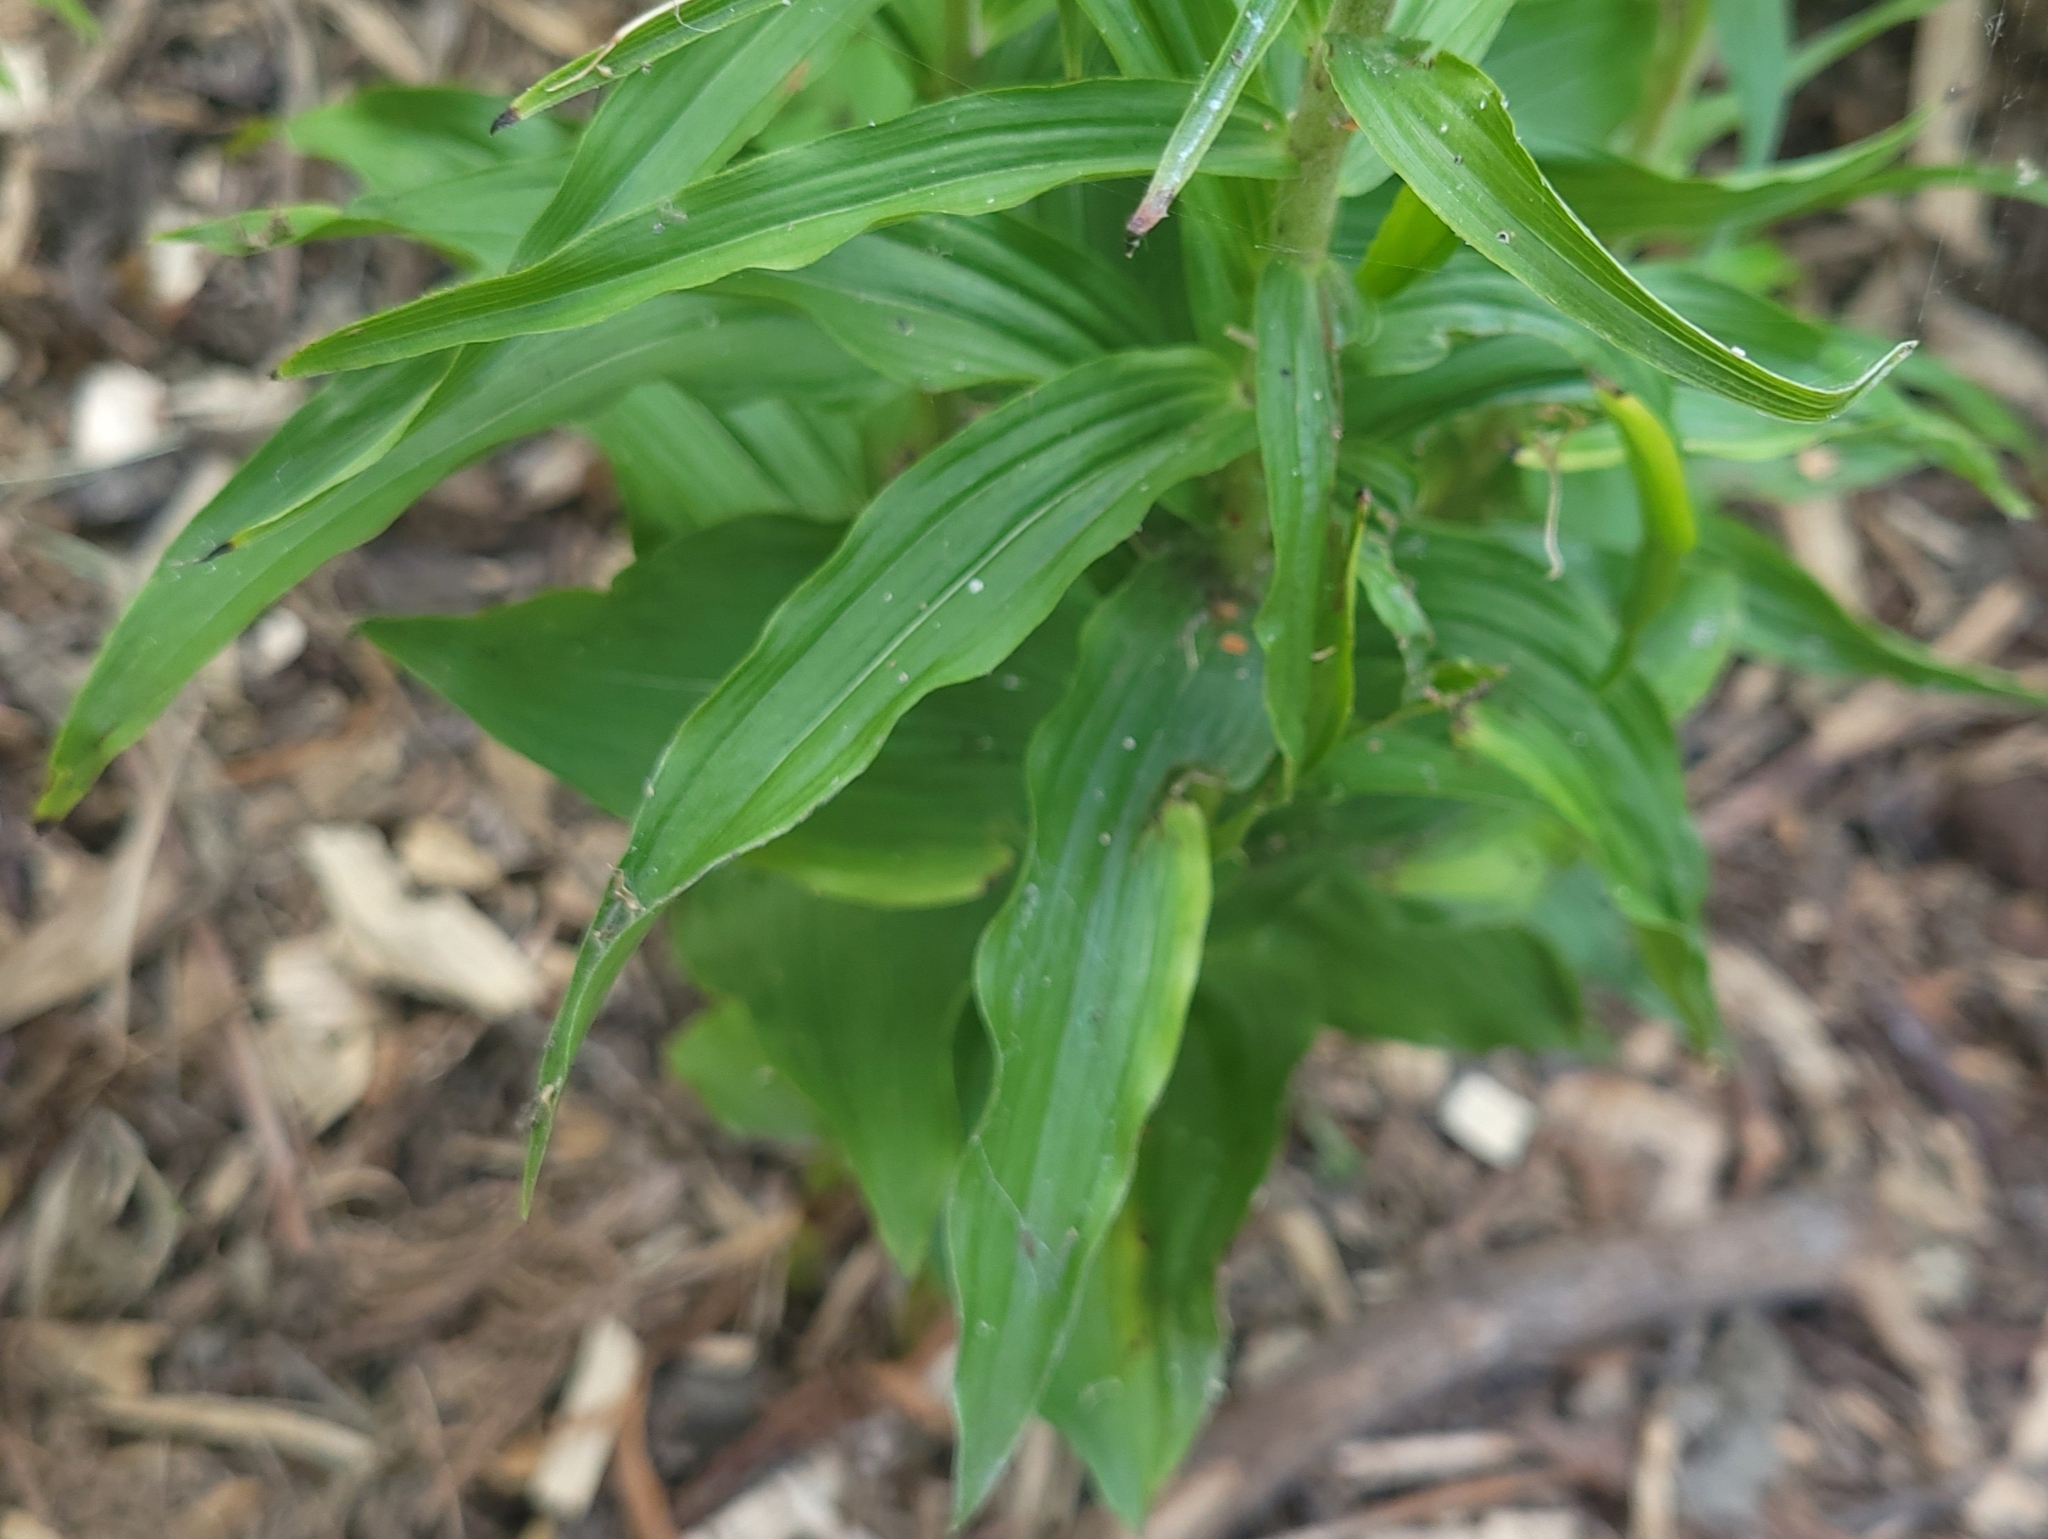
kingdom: Plantae
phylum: Tracheophyta
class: Liliopsida
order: Asparagales
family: Orchidaceae
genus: Epipactis
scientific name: Epipactis helleborine
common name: Broad-leaved helleborine
